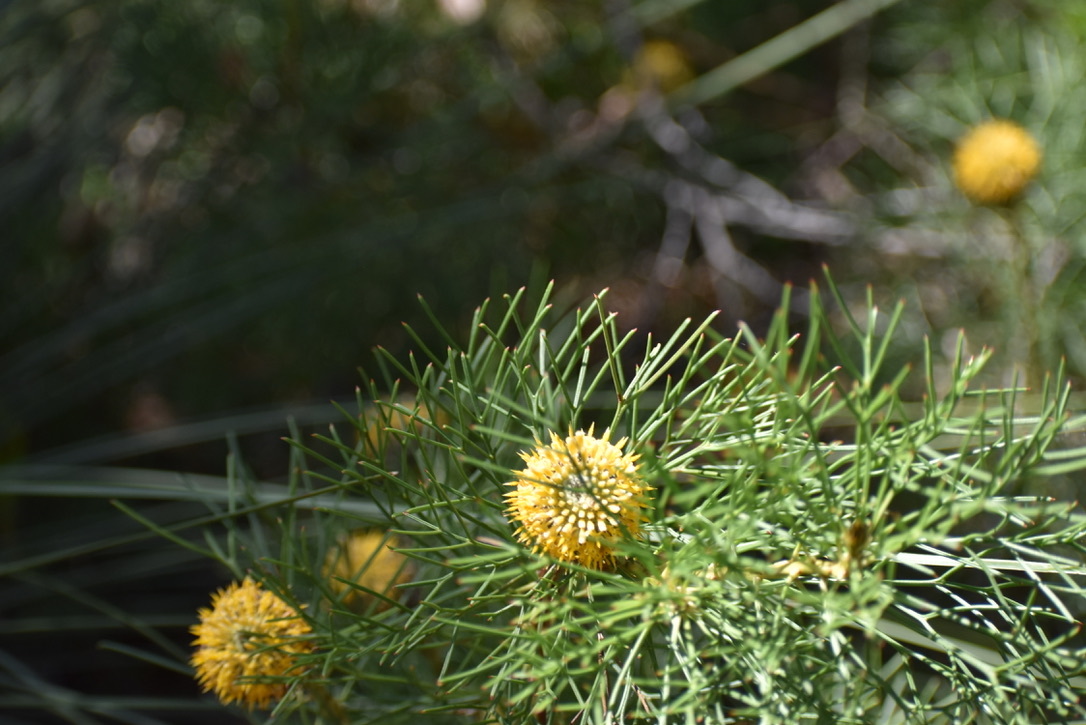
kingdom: Plantae
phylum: Tracheophyta
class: Magnoliopsida
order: Proteales
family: Proteaceae
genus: Isopogon
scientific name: Isopogon anethifolius
